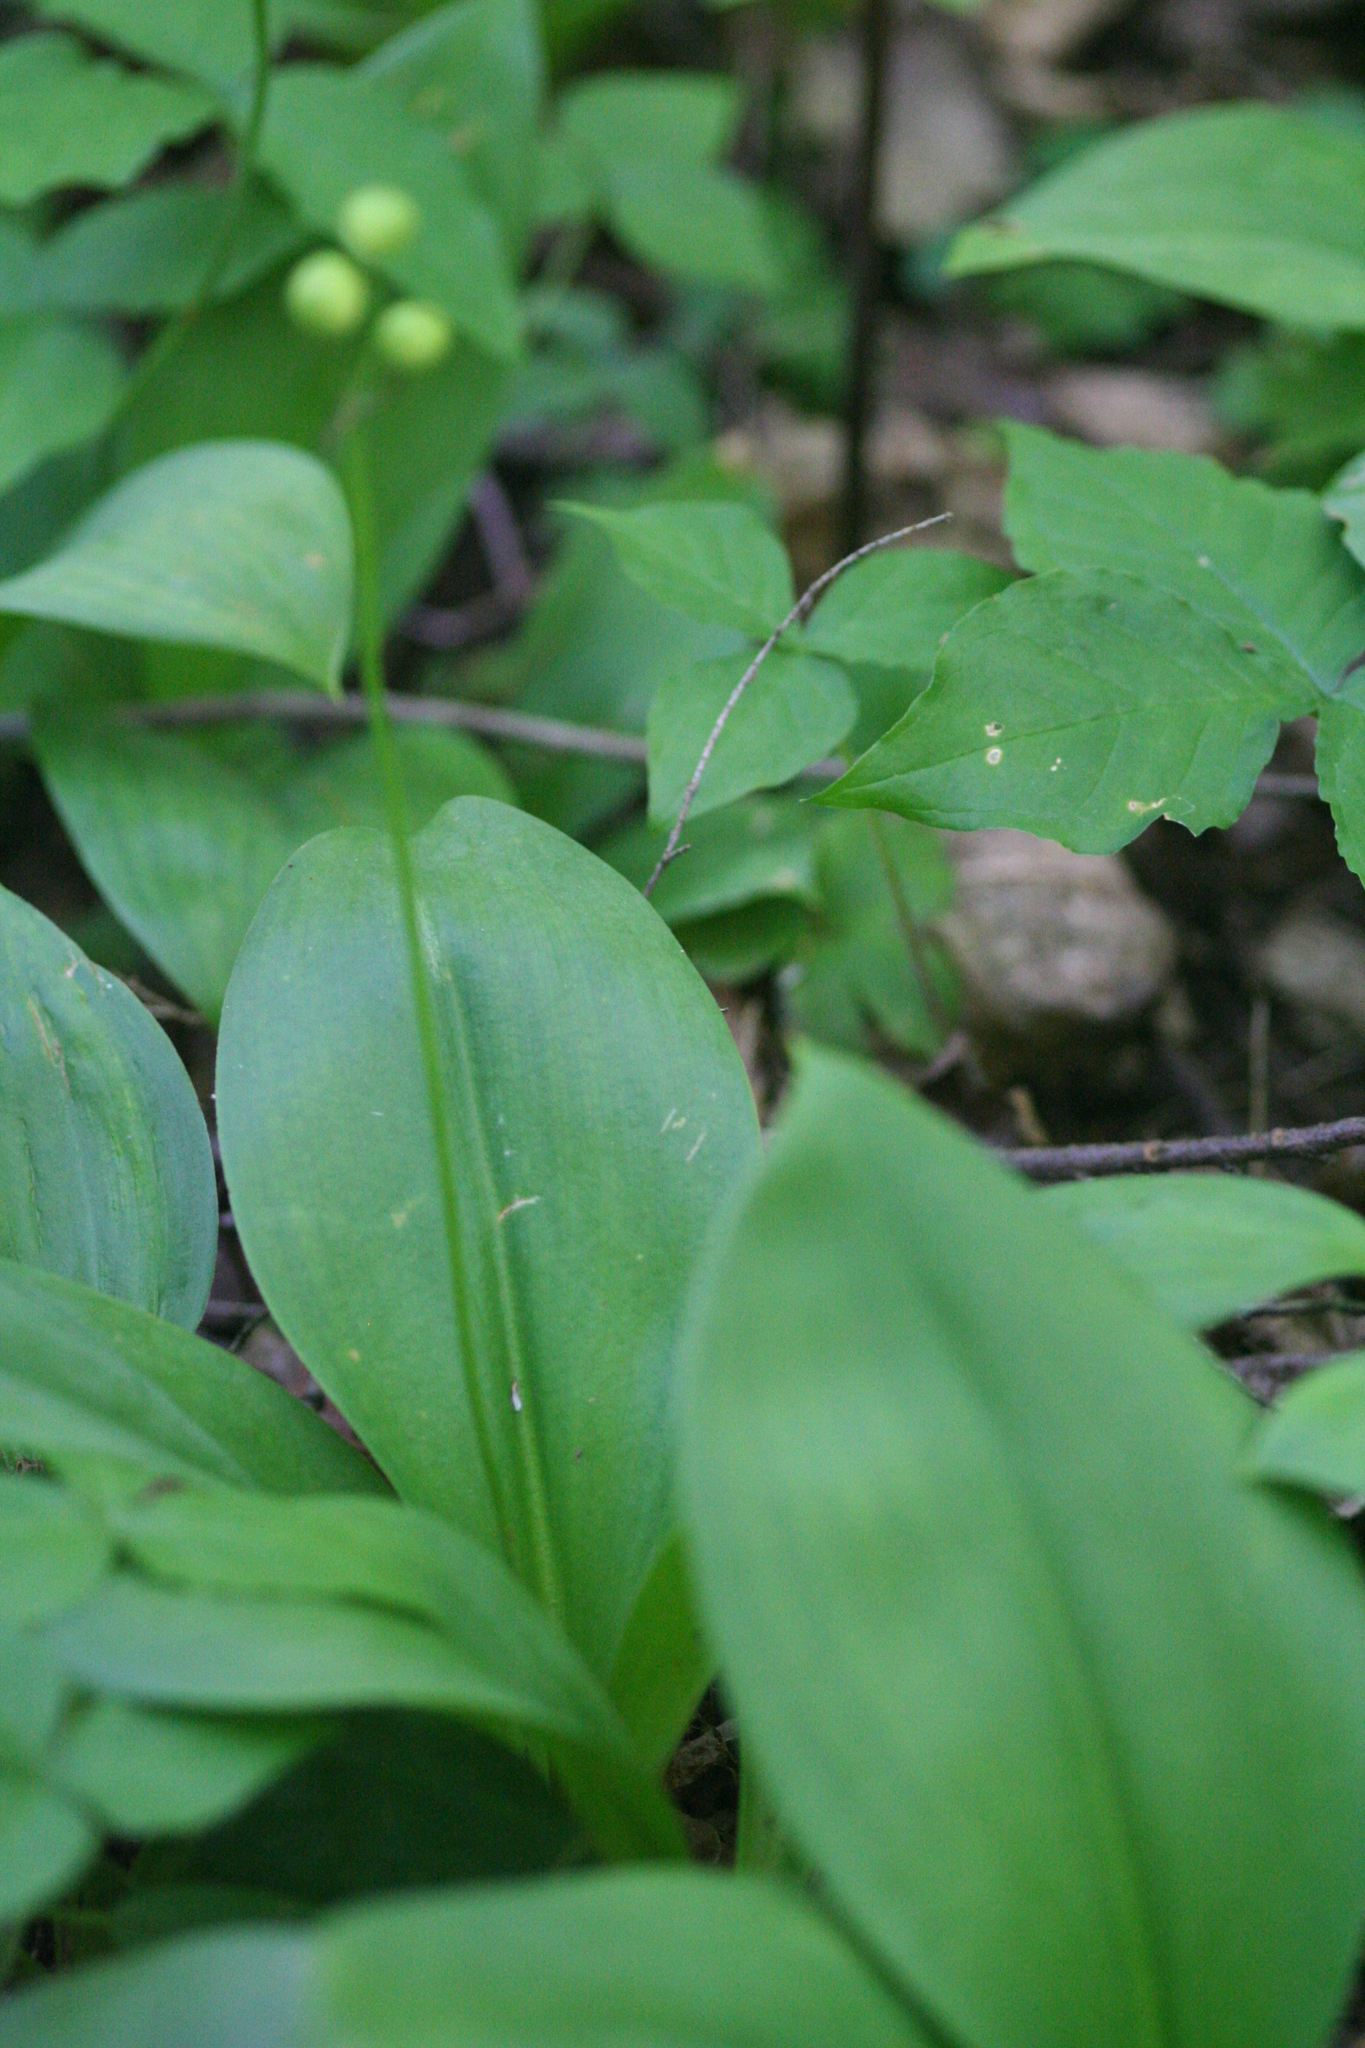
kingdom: Plantae
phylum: Tracheophyta
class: Liliopsida
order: Liliales
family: Liliaceae
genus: Clintonia
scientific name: Clintonia borealis
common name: Yellow clintonia
